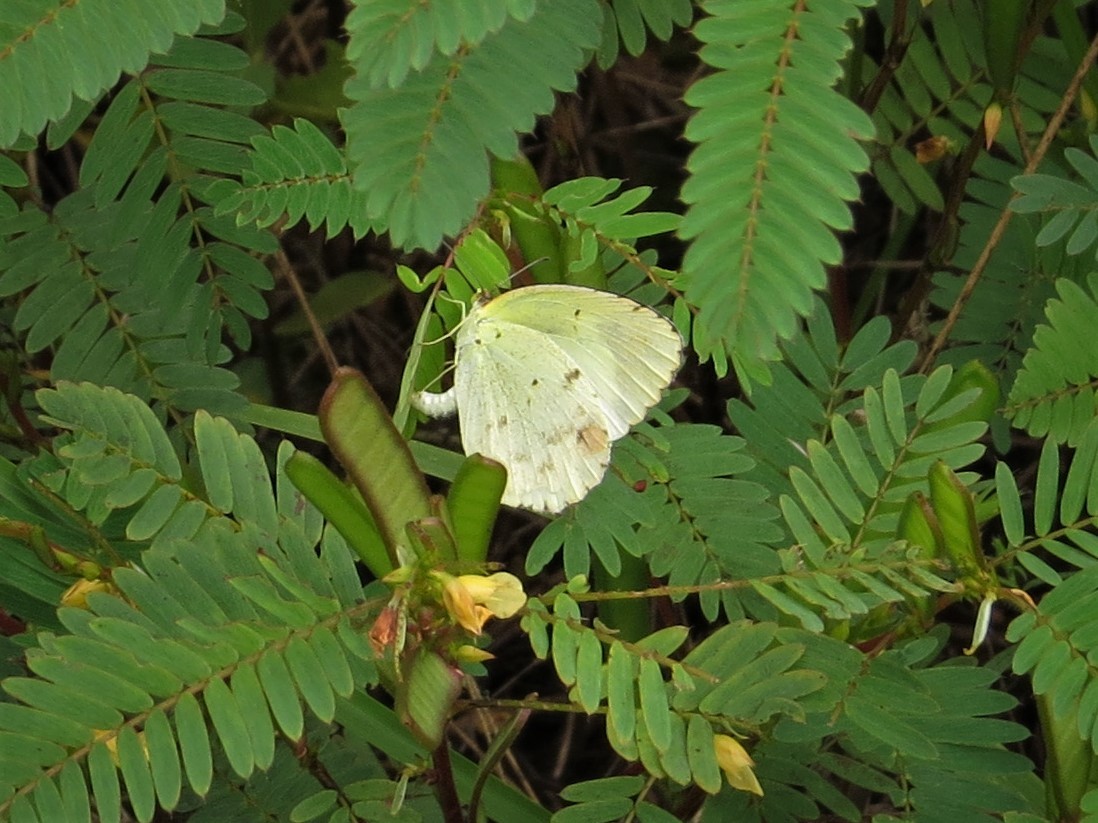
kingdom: Animalia
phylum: Arthropoda
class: Insecta
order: Lepidoptera
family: Pieridae
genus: Pyrisitia
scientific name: Pyrisitia lisa
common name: Little yellow
